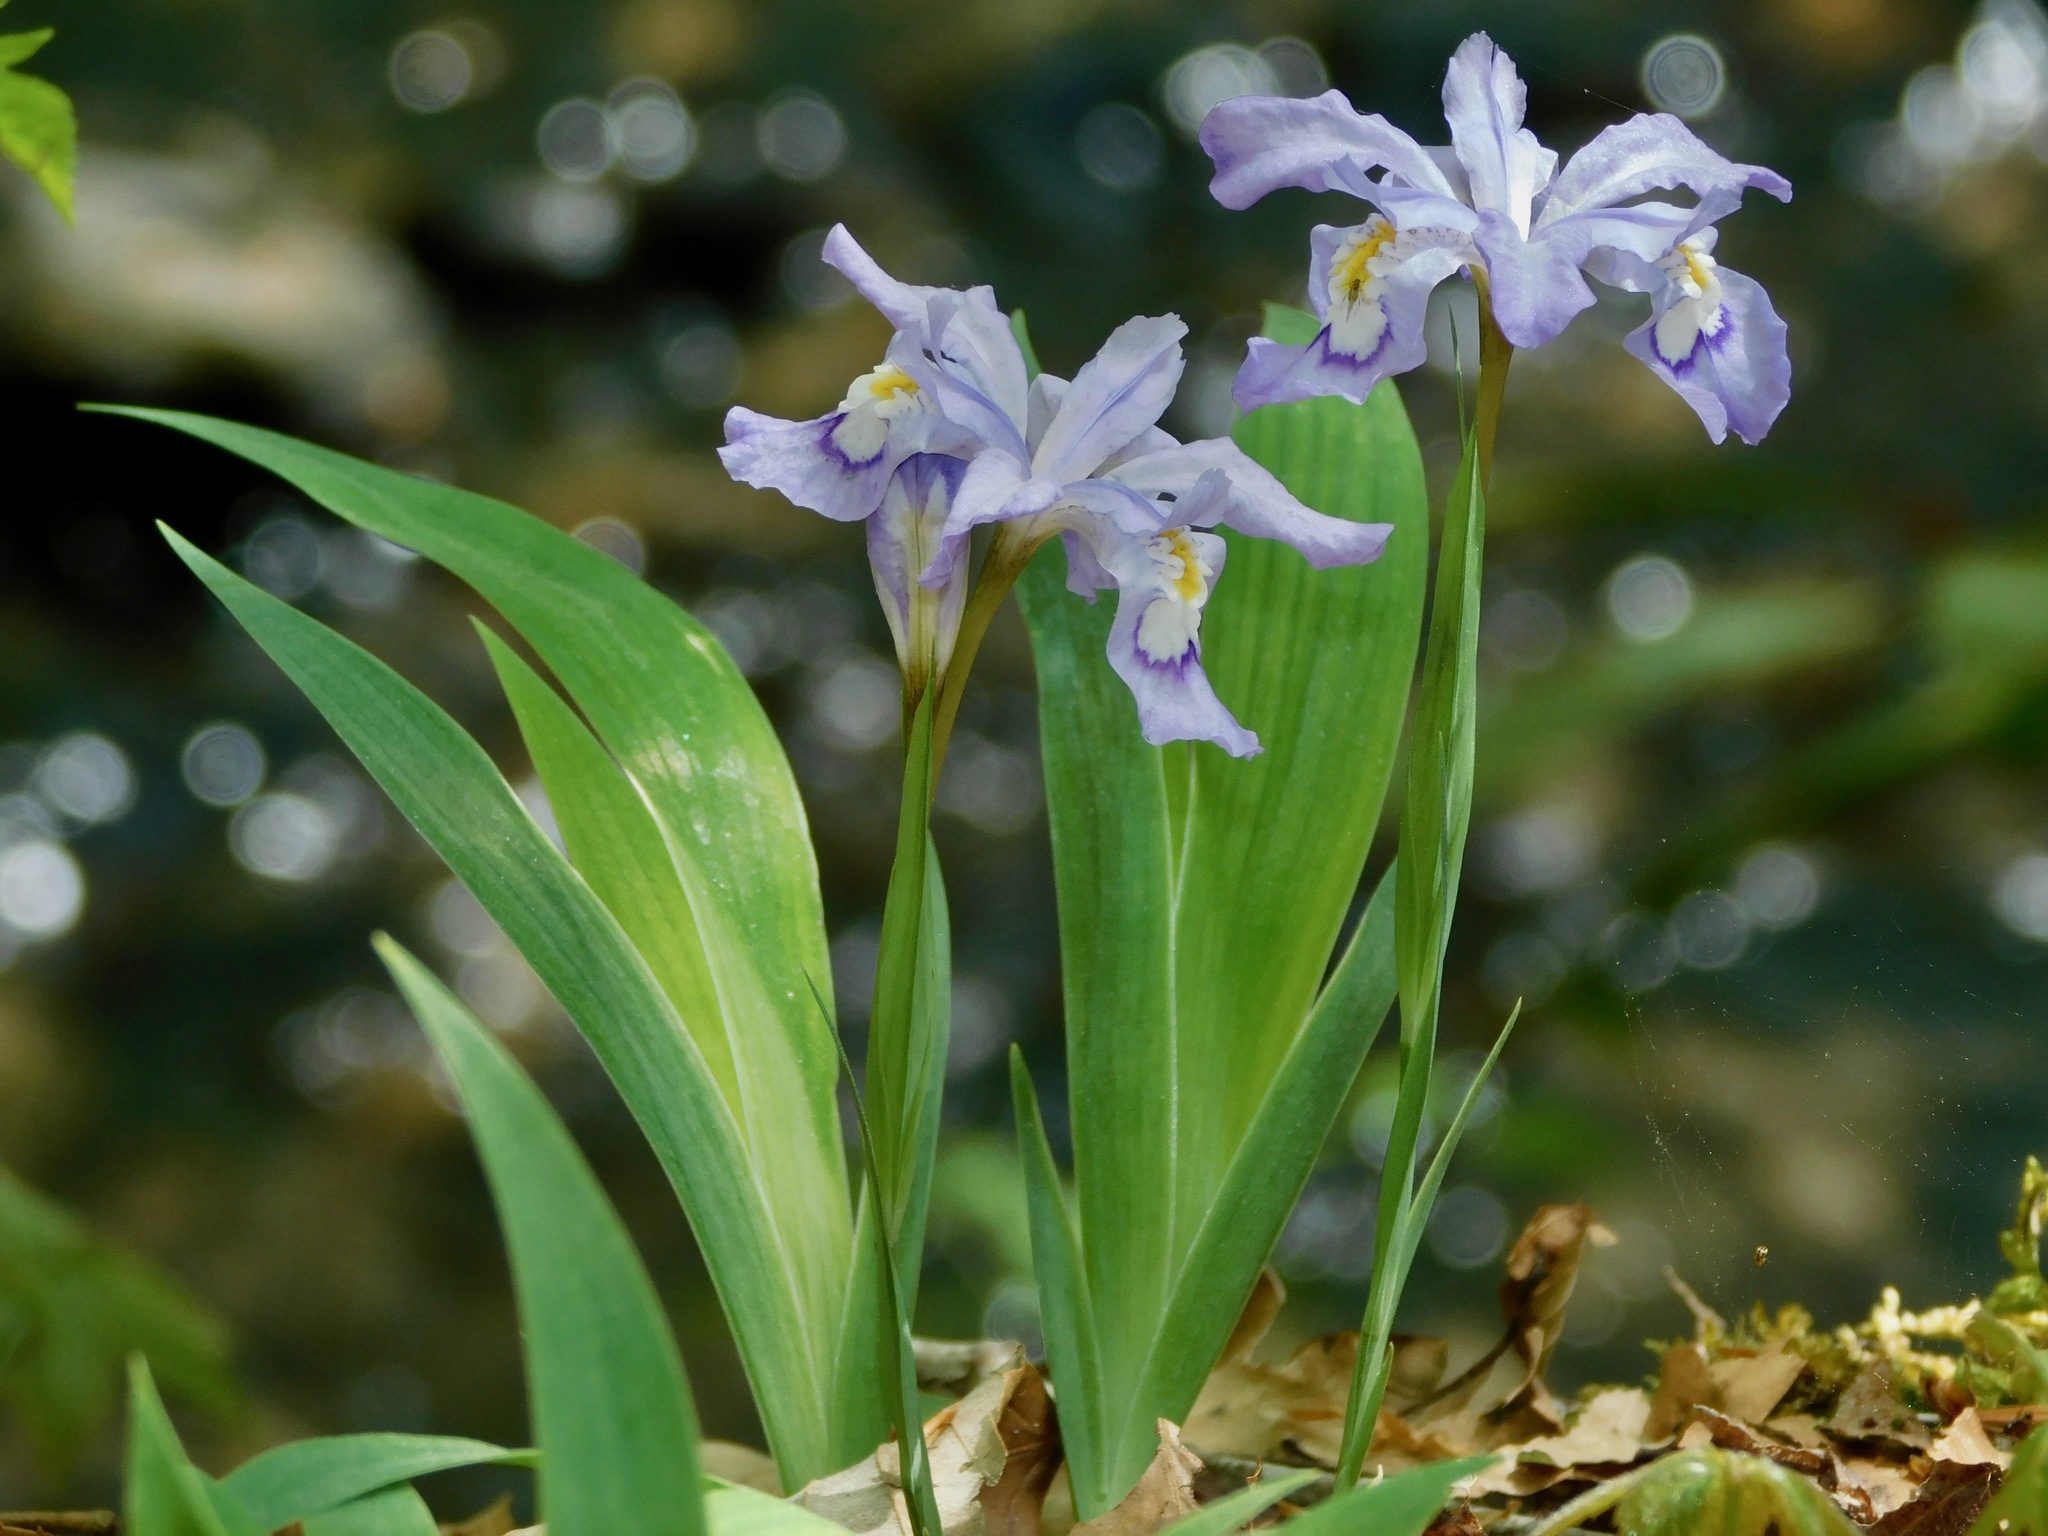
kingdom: Plantae
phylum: Tracheophyta
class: Liliopsida
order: Asparagales
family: Iridaceae
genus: Iris
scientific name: Iris cristata
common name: Crested iris
